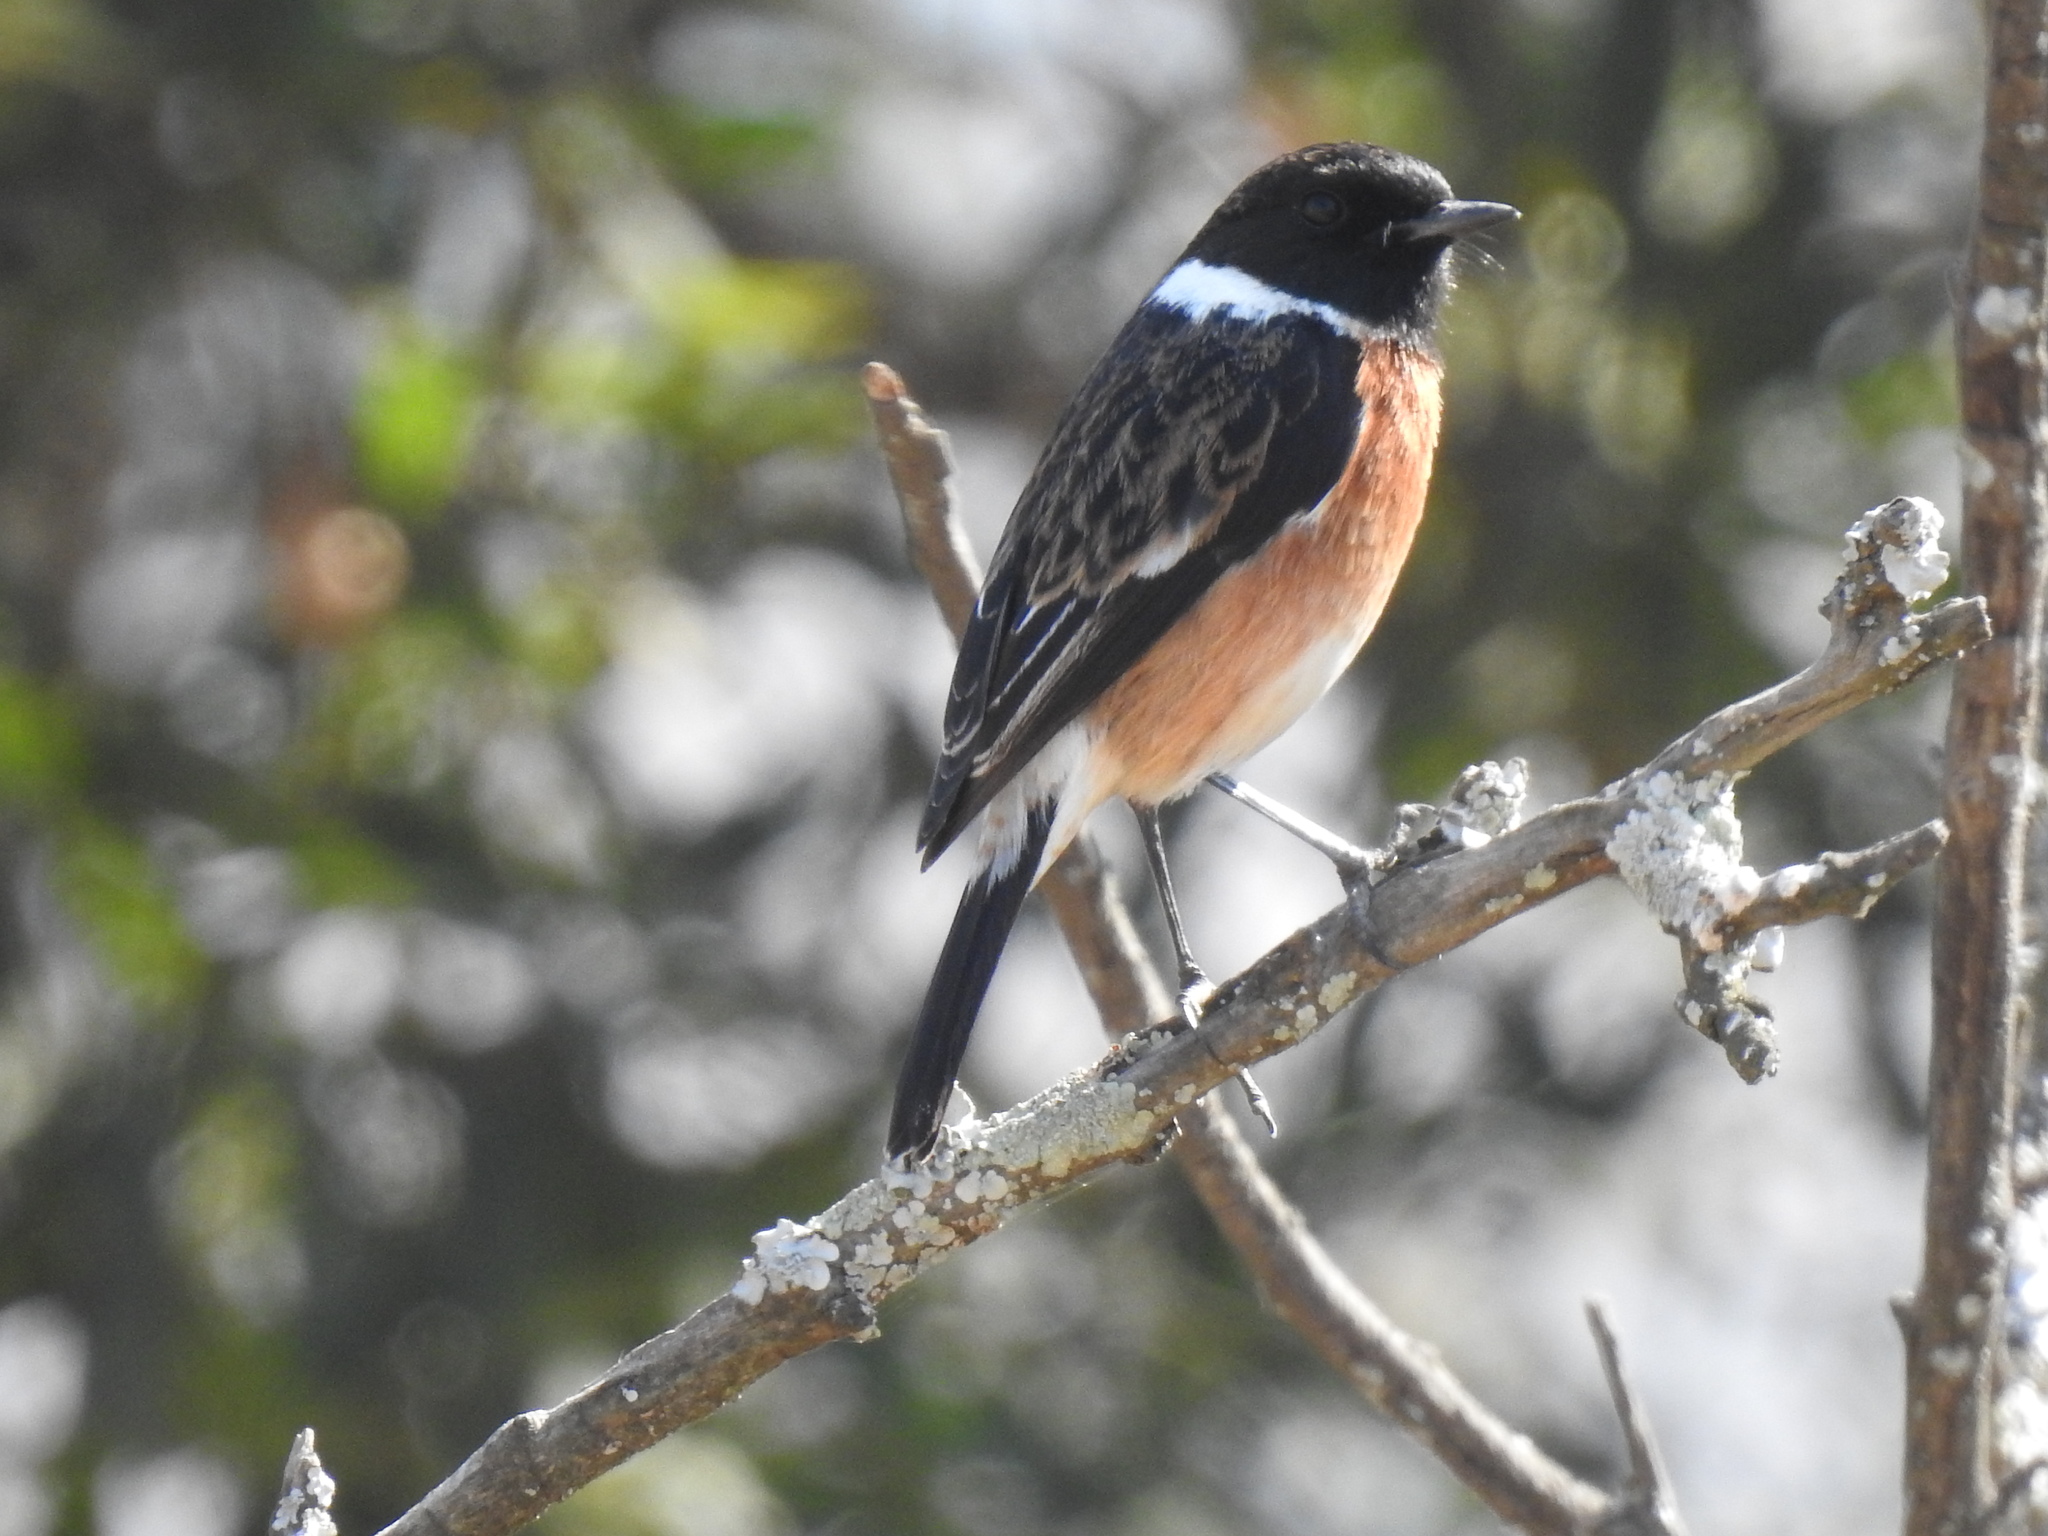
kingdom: Animalia
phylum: Chordata
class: Aves
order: Passeriformes
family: Muscicapidae
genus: Saxicola
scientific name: Saxicola torquatus
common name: African stonechat
